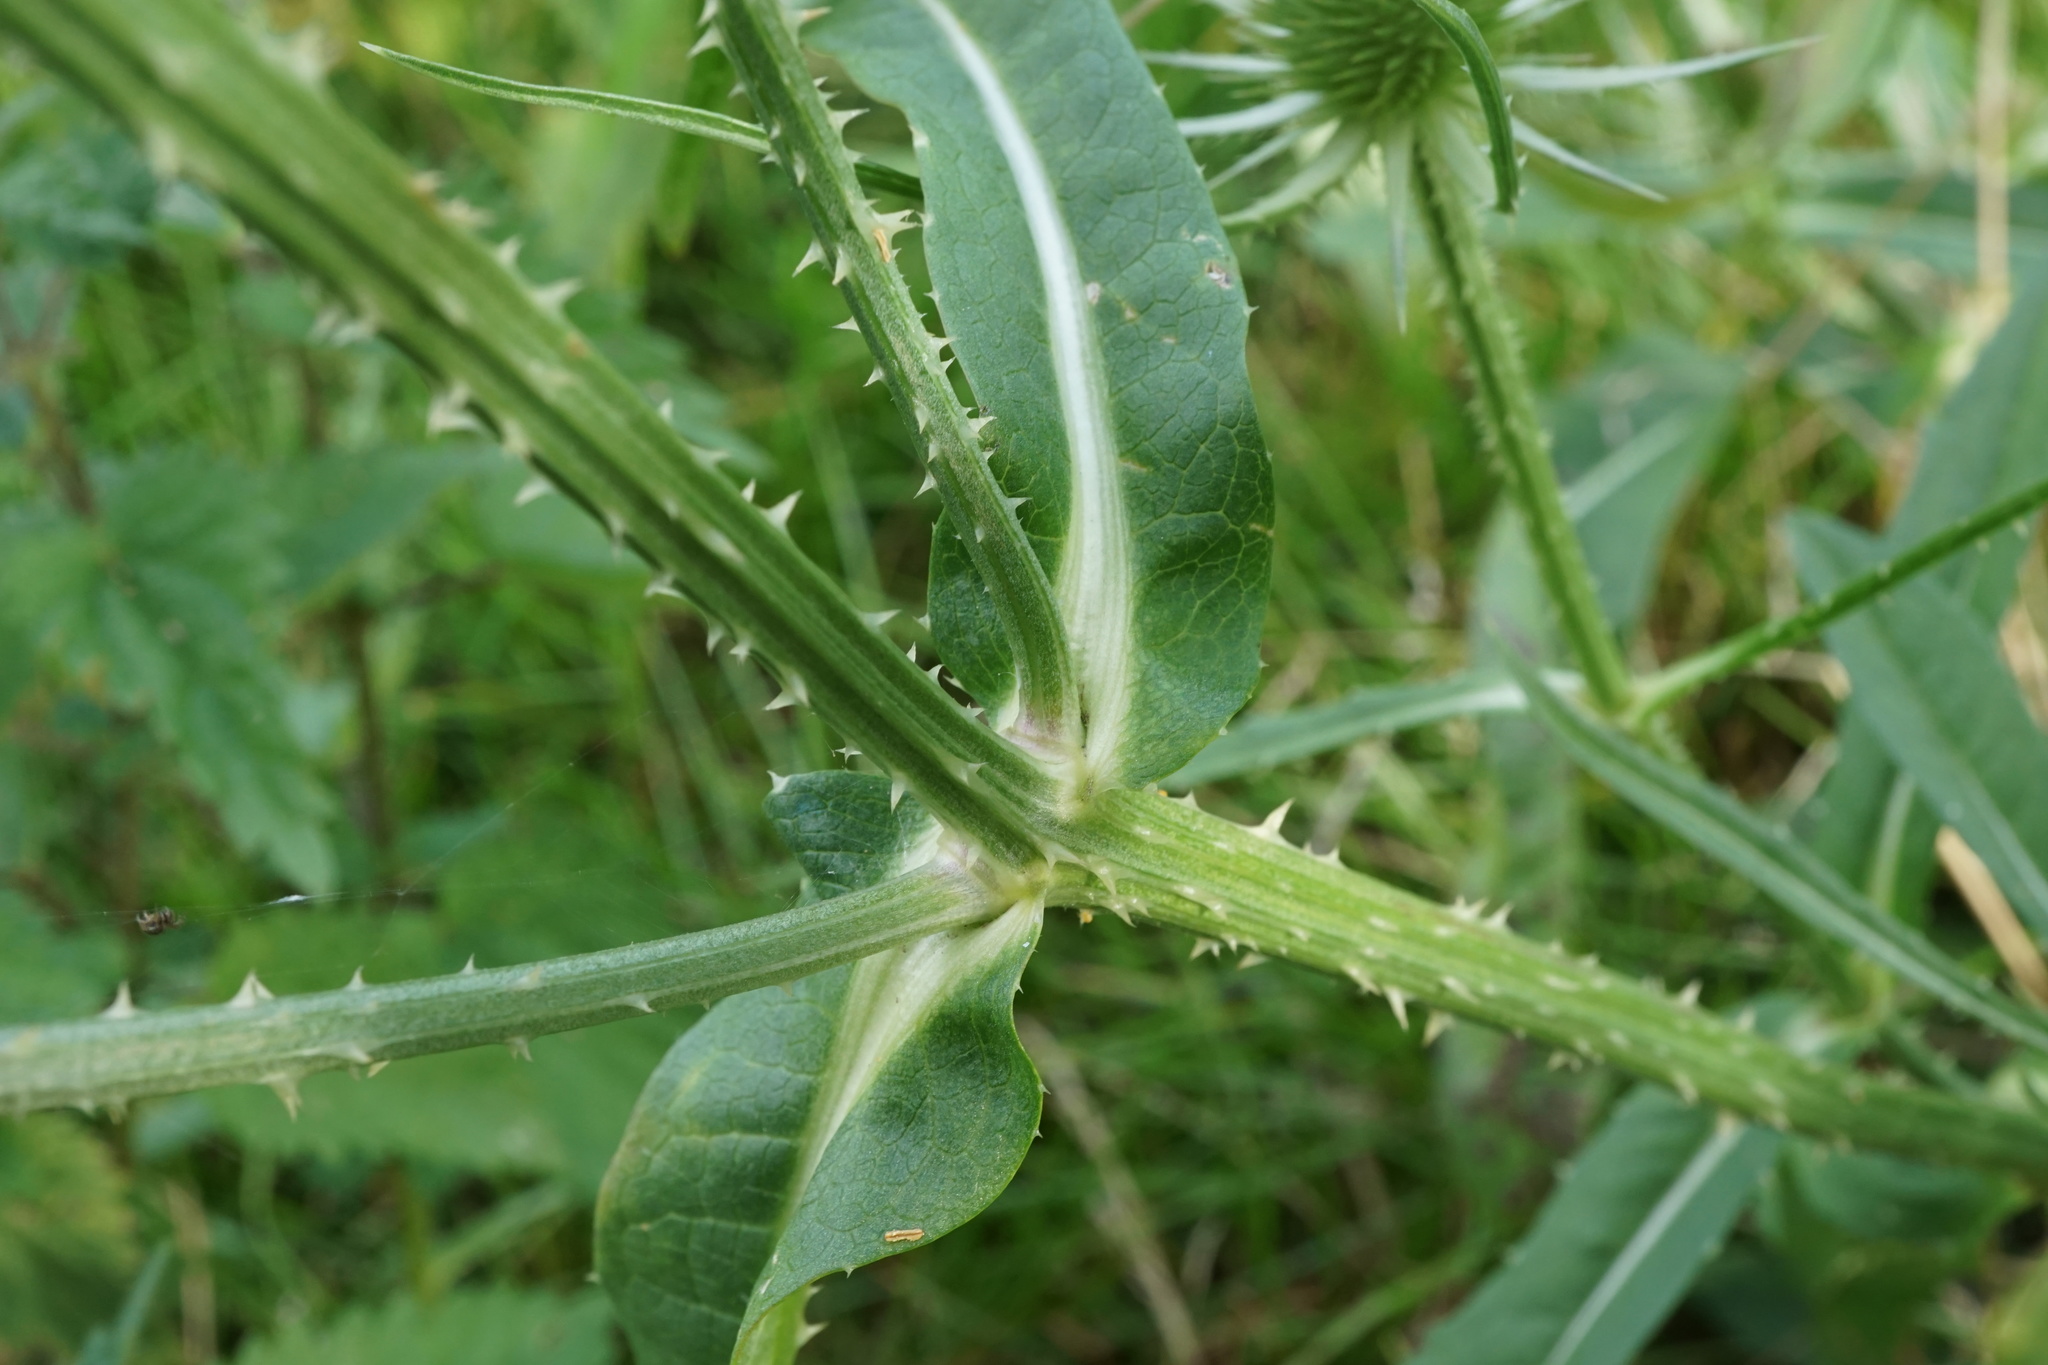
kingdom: Plantae
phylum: Tracheophyta
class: Magnoliopsida
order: Dipsacales
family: Caprifoliaceae
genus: Dipsacus
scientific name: Dipsacus fullonum
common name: Teasel
